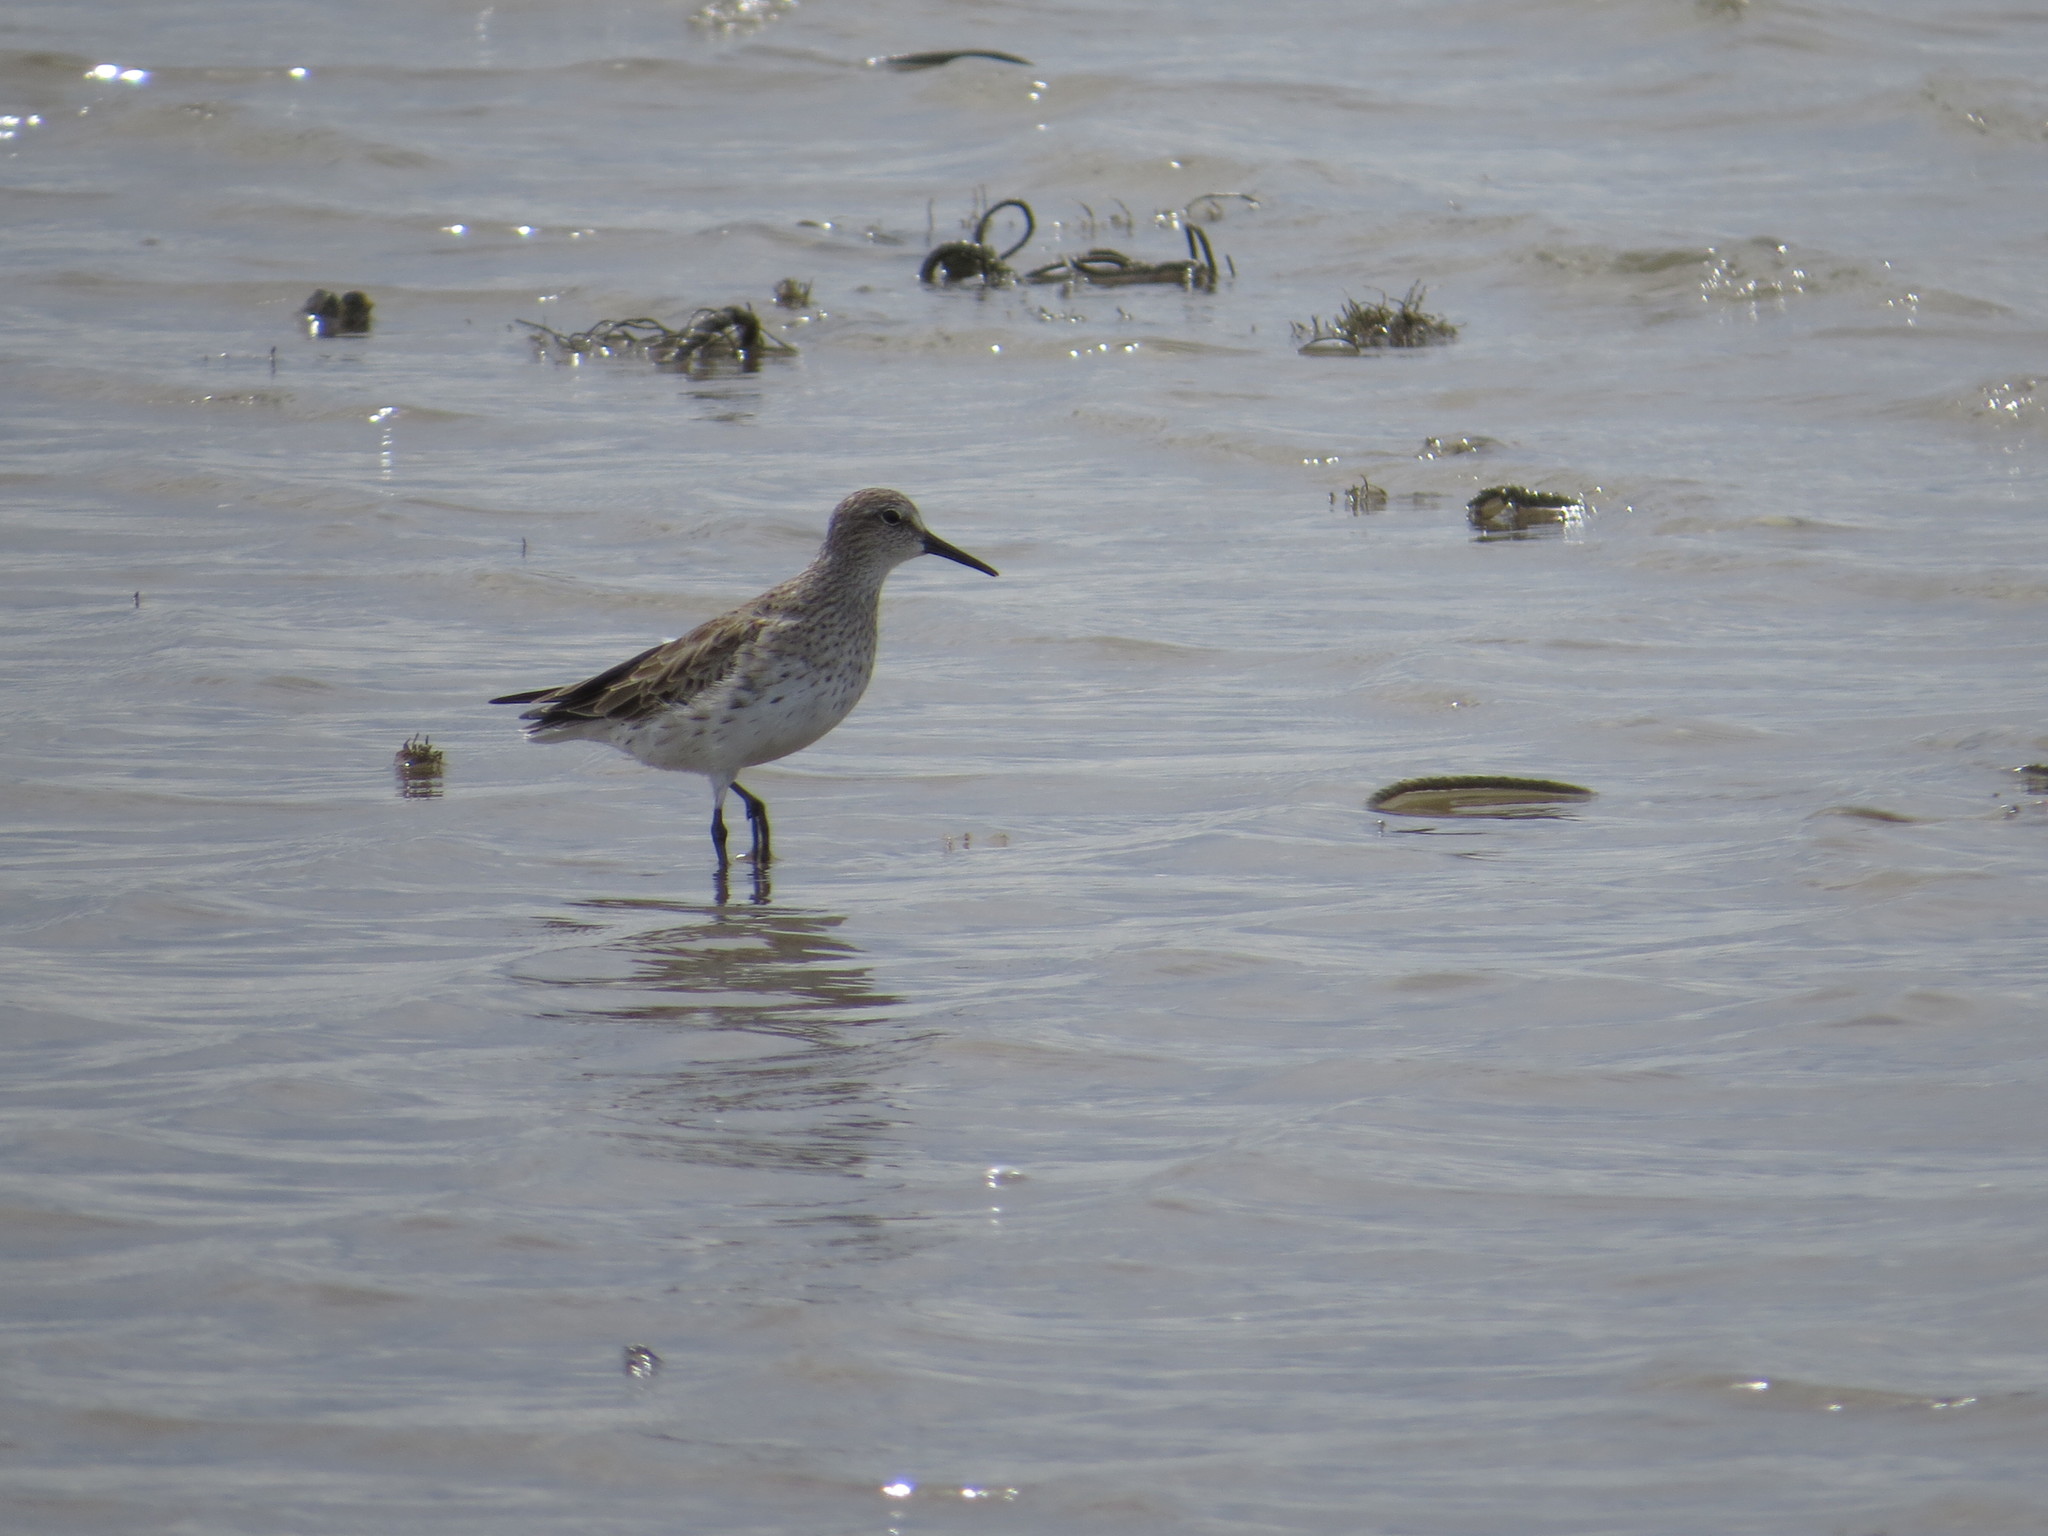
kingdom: Animalia
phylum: Chordata
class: Aves
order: Charadriiformes
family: Scolopacidae
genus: Calidris
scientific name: Calidris fuscicollis
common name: White-rumped sandpiper
